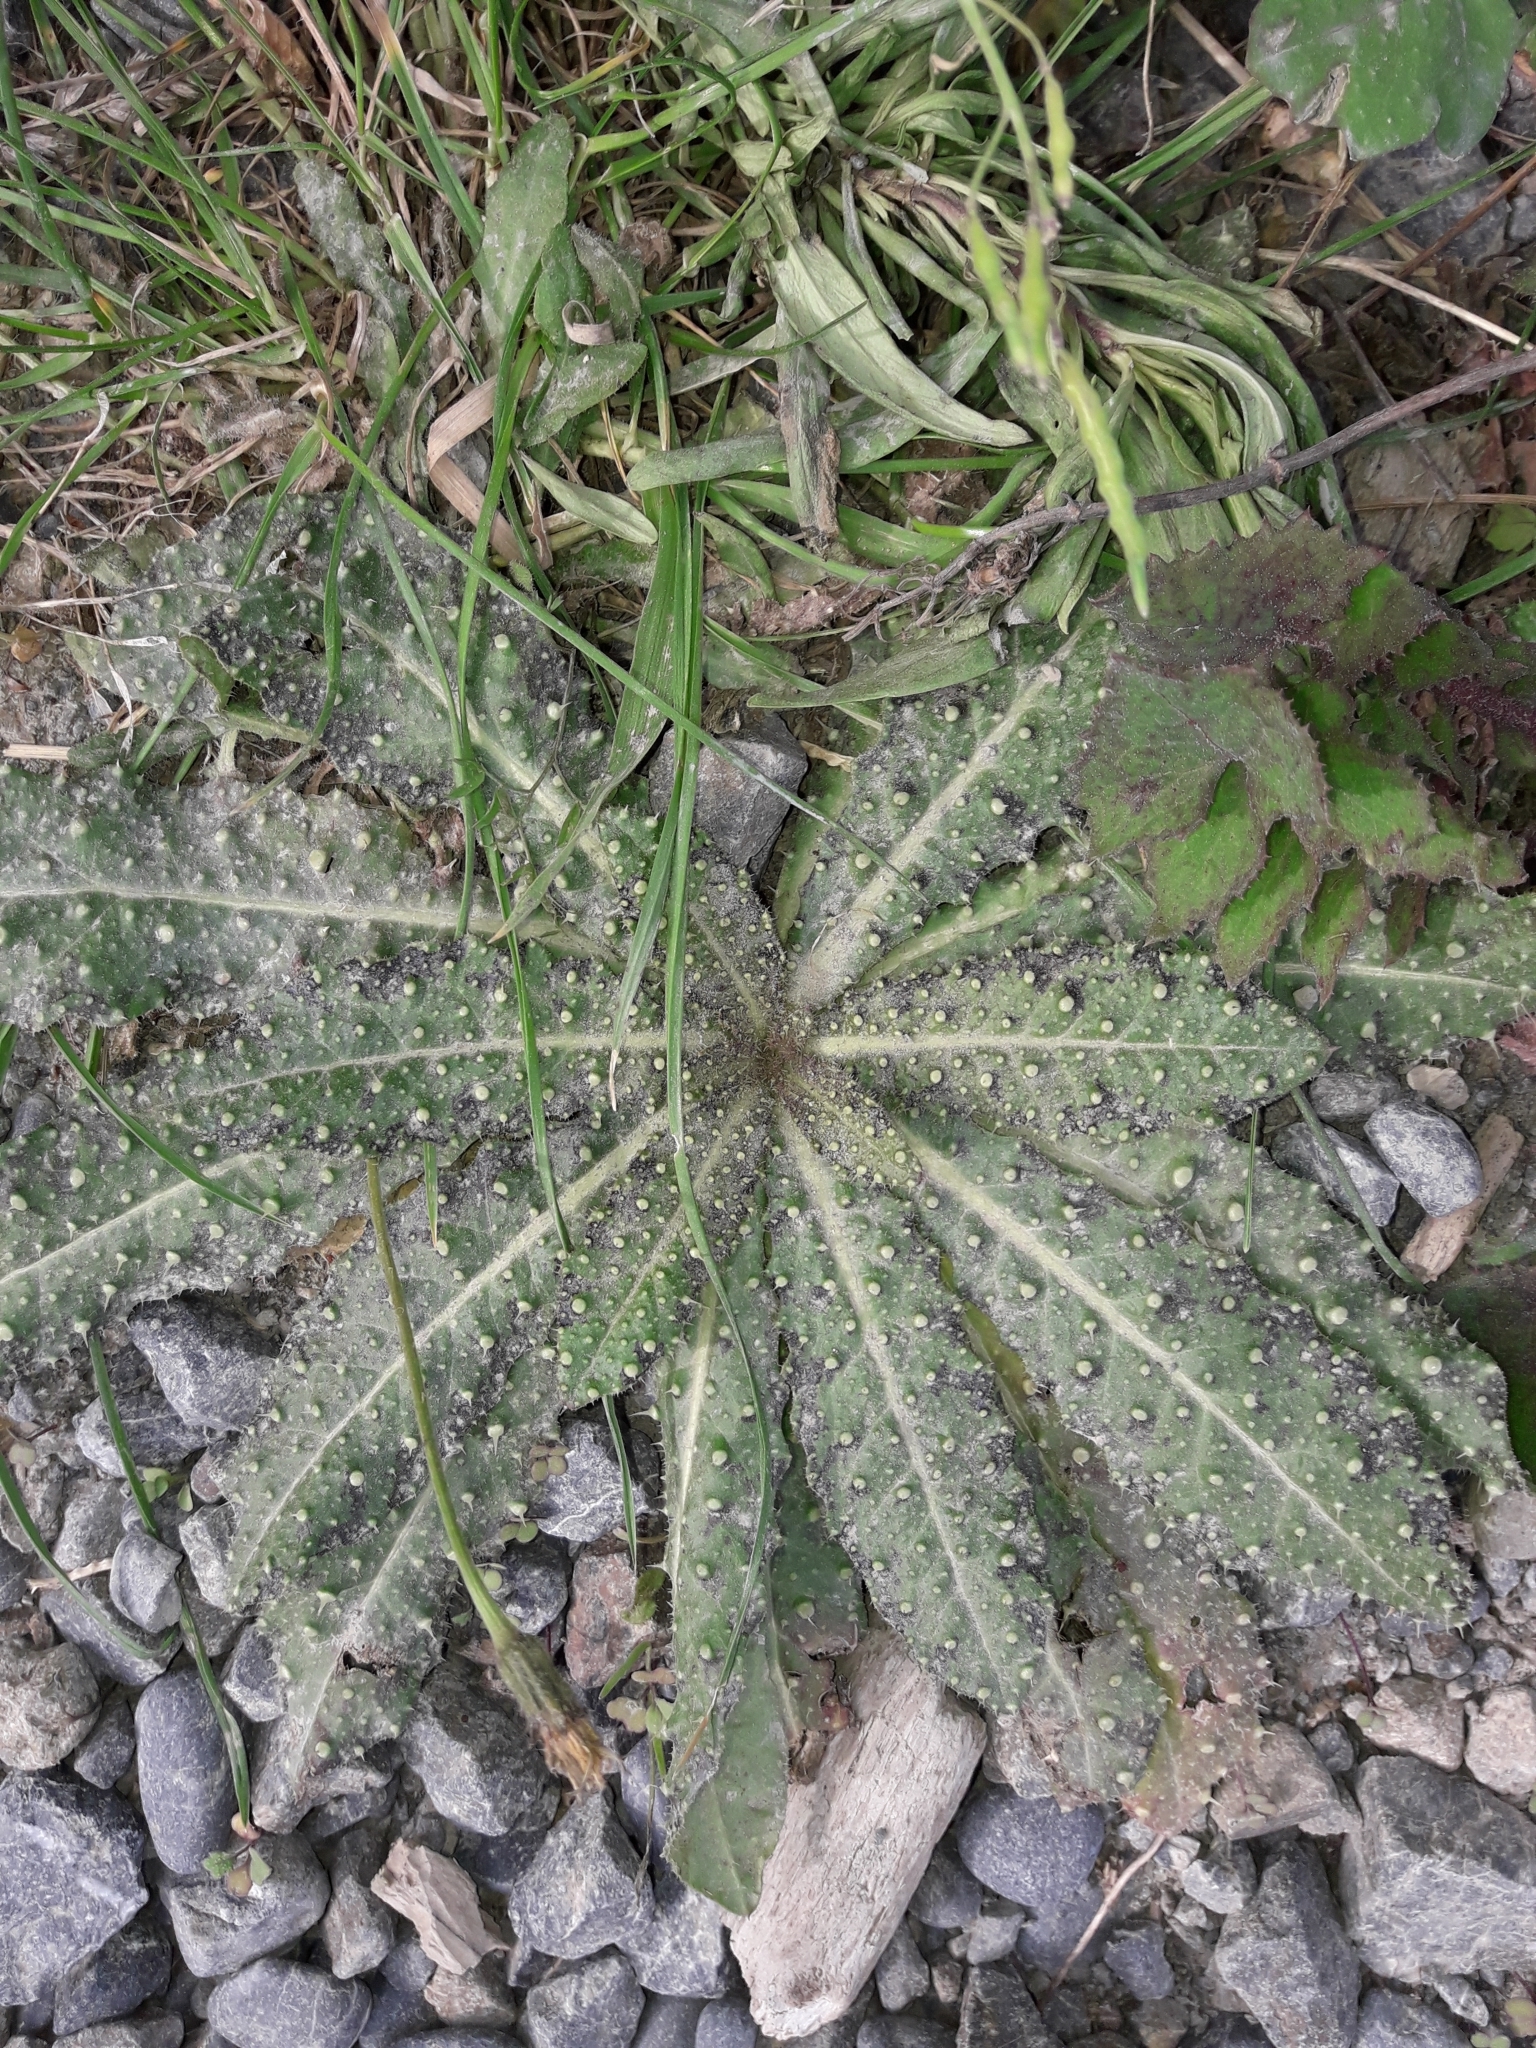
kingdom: Plantae
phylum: Tracheophyta
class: Magnoliopsida
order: Asterales
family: Asteraceae
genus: Helminthotheca
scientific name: Helminthotheca echioides
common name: Ox-tongue
